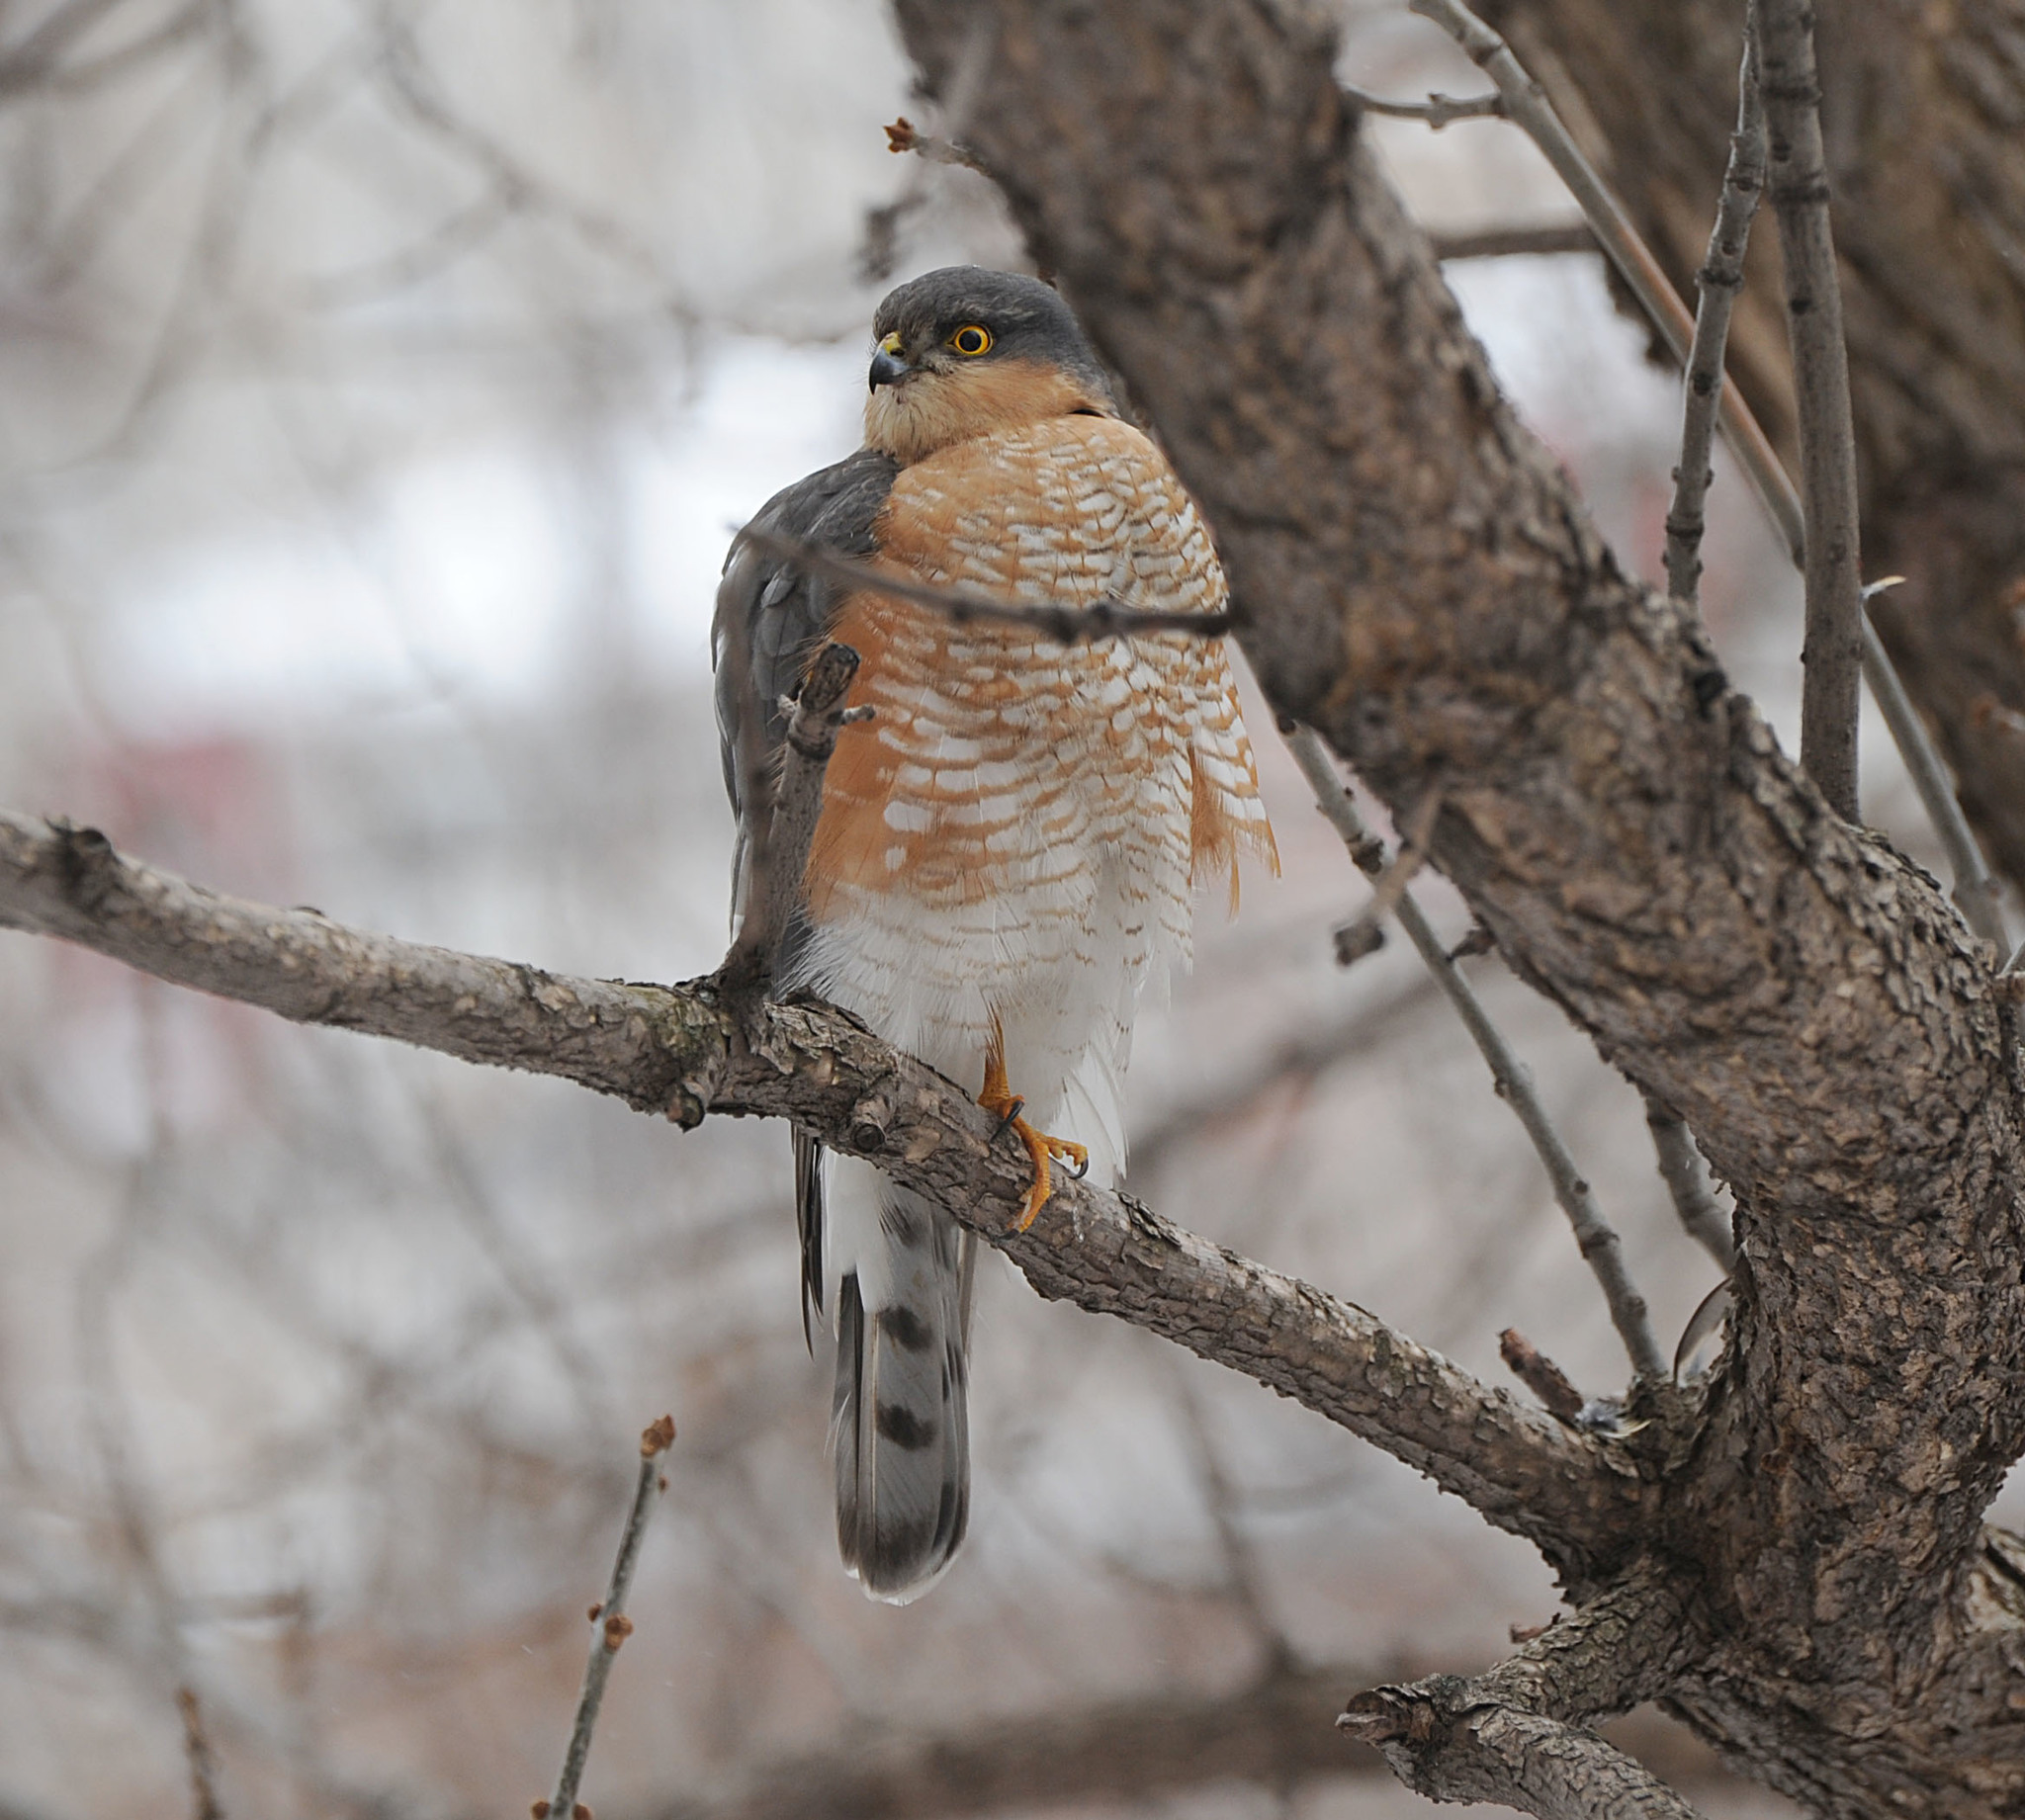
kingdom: Animalia
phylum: Chordata
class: Aves
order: Accipitriformes
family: Accipitridae
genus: Accipiter
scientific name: Accipiter nisus
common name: Eurasian sparrowhawk
